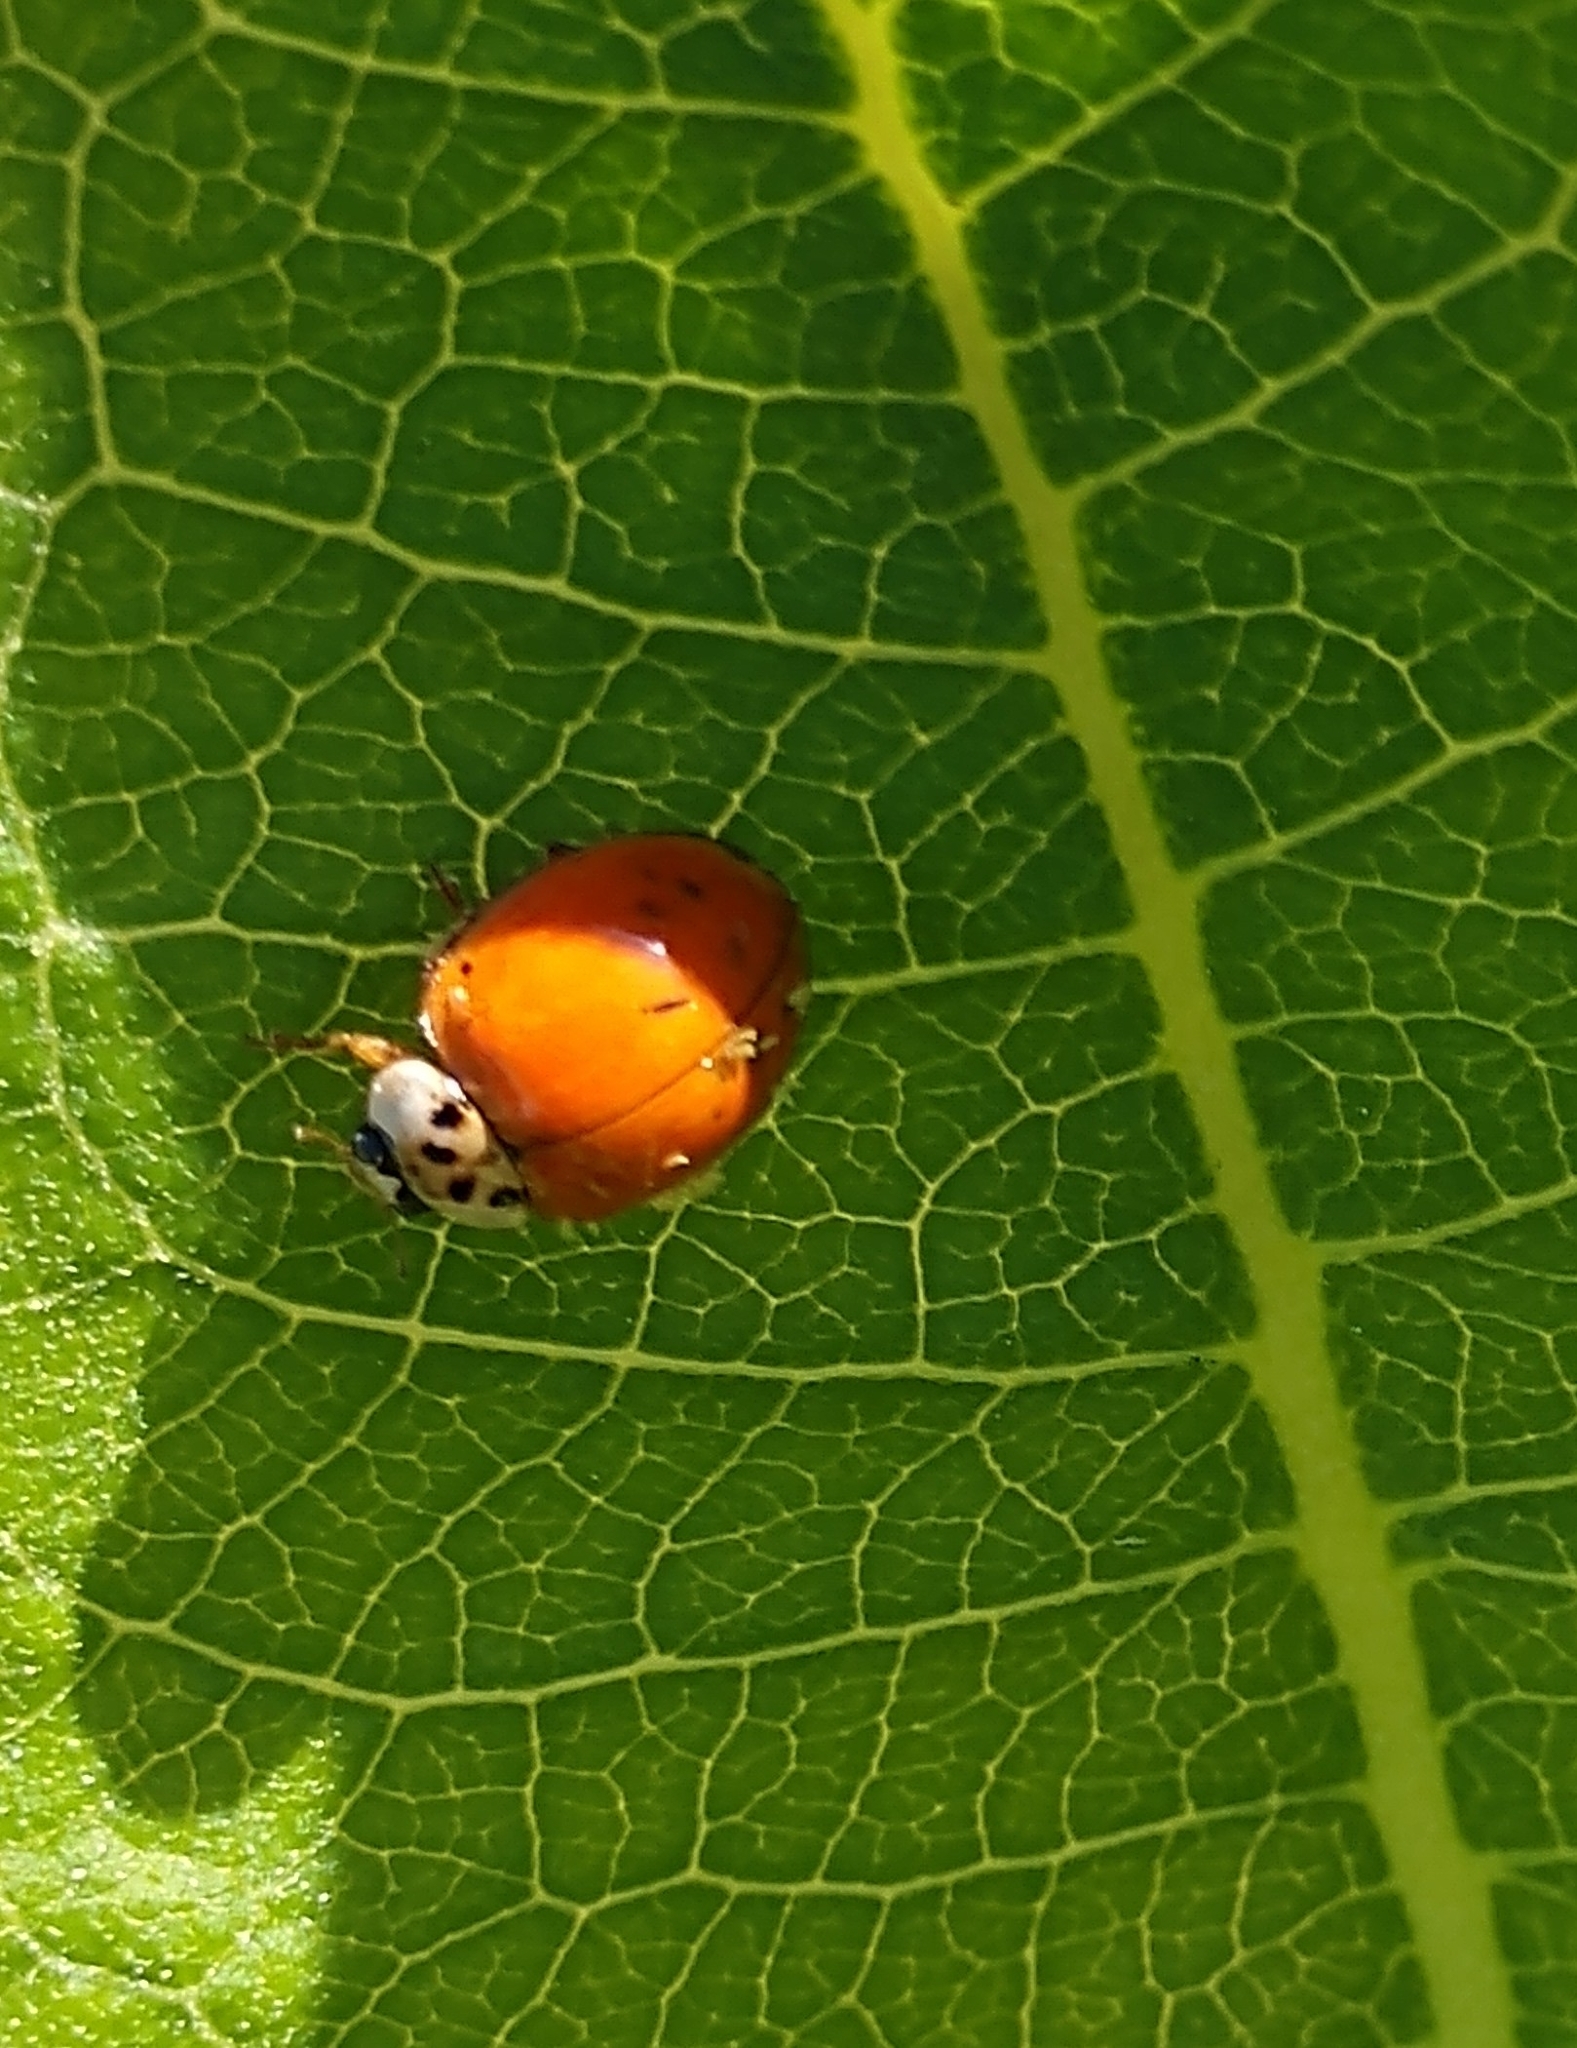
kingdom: Animalia
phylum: Arthropoda
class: Insecta
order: Coleoptera
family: Coccinellidae
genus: Harmonia
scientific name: Harmonia axyridis
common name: Harlequin ladybird
